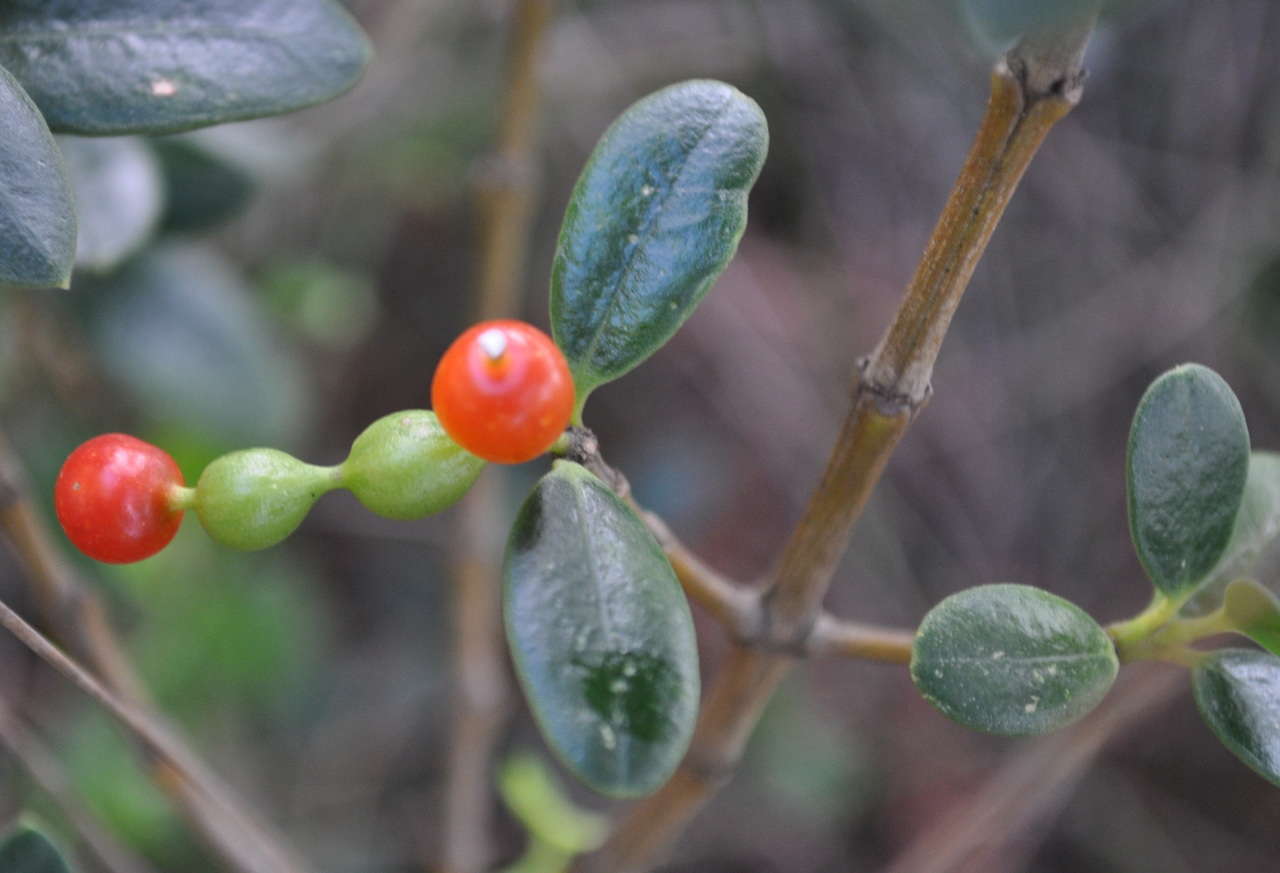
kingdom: Plantae
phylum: Tracheophyta
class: Magnoliopsida
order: Gentianales
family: Apocynaceae
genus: Alyxia
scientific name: Alyxia buxifolia
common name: Dysentery-bush
